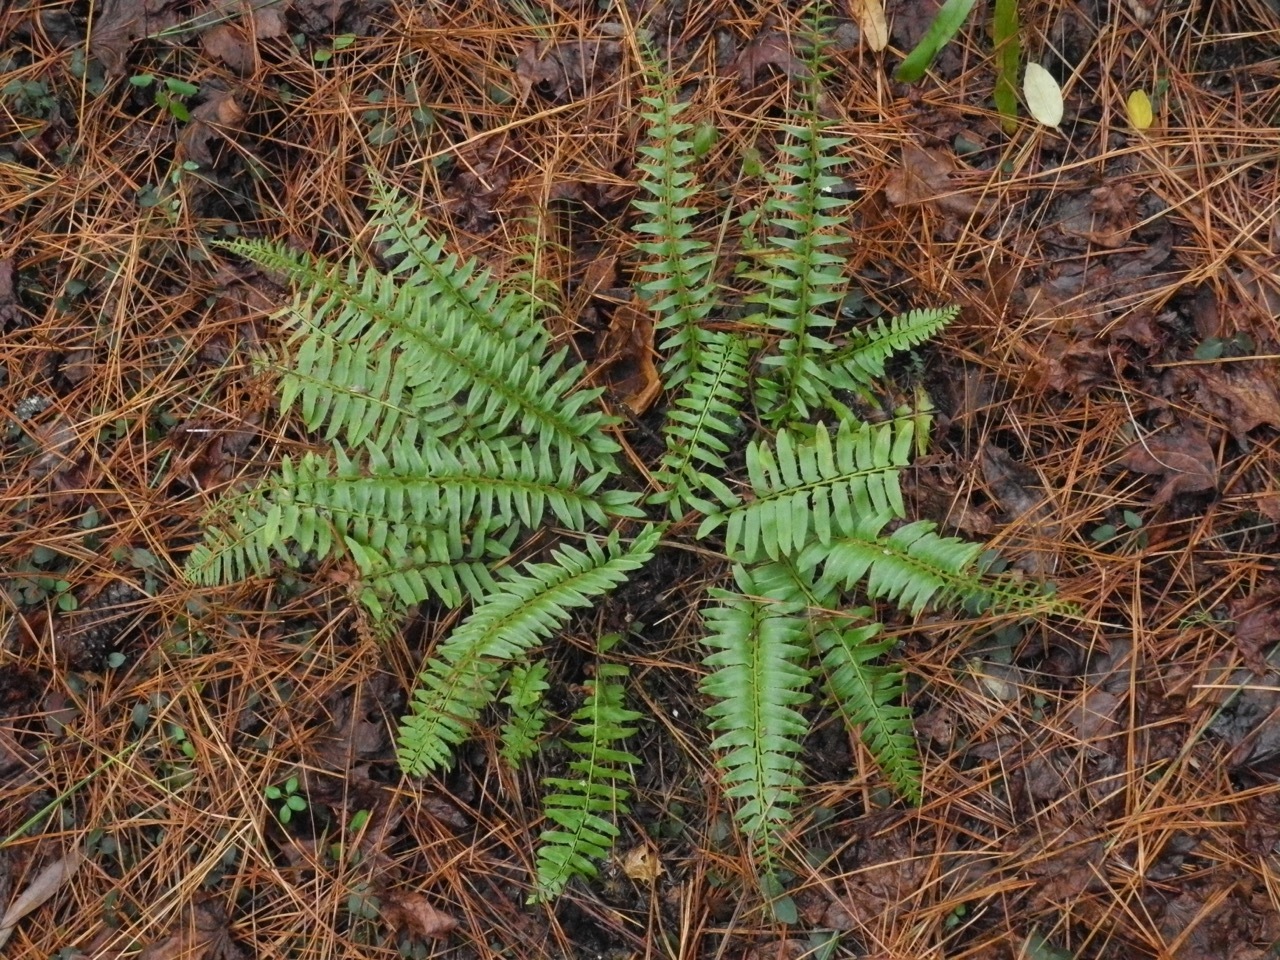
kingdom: Plantae
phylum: Tracheophyta
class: Polypodiopsida
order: Polypodiales
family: Dryopteridaceae
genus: Polystichum
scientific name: Polystichum acrostichoides
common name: Christmas fern
